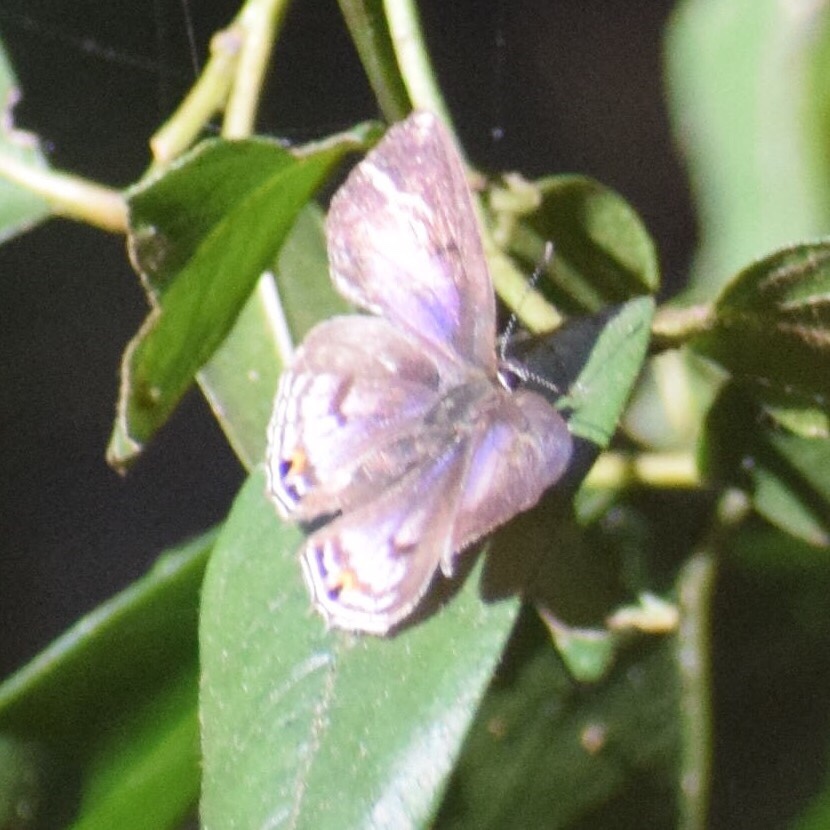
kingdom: Animalia
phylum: Arthropoda
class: Insecta
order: Lepidoptera
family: Lycaenidae
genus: Anthene
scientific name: Anthene lemnos
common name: Large ciliate blue
